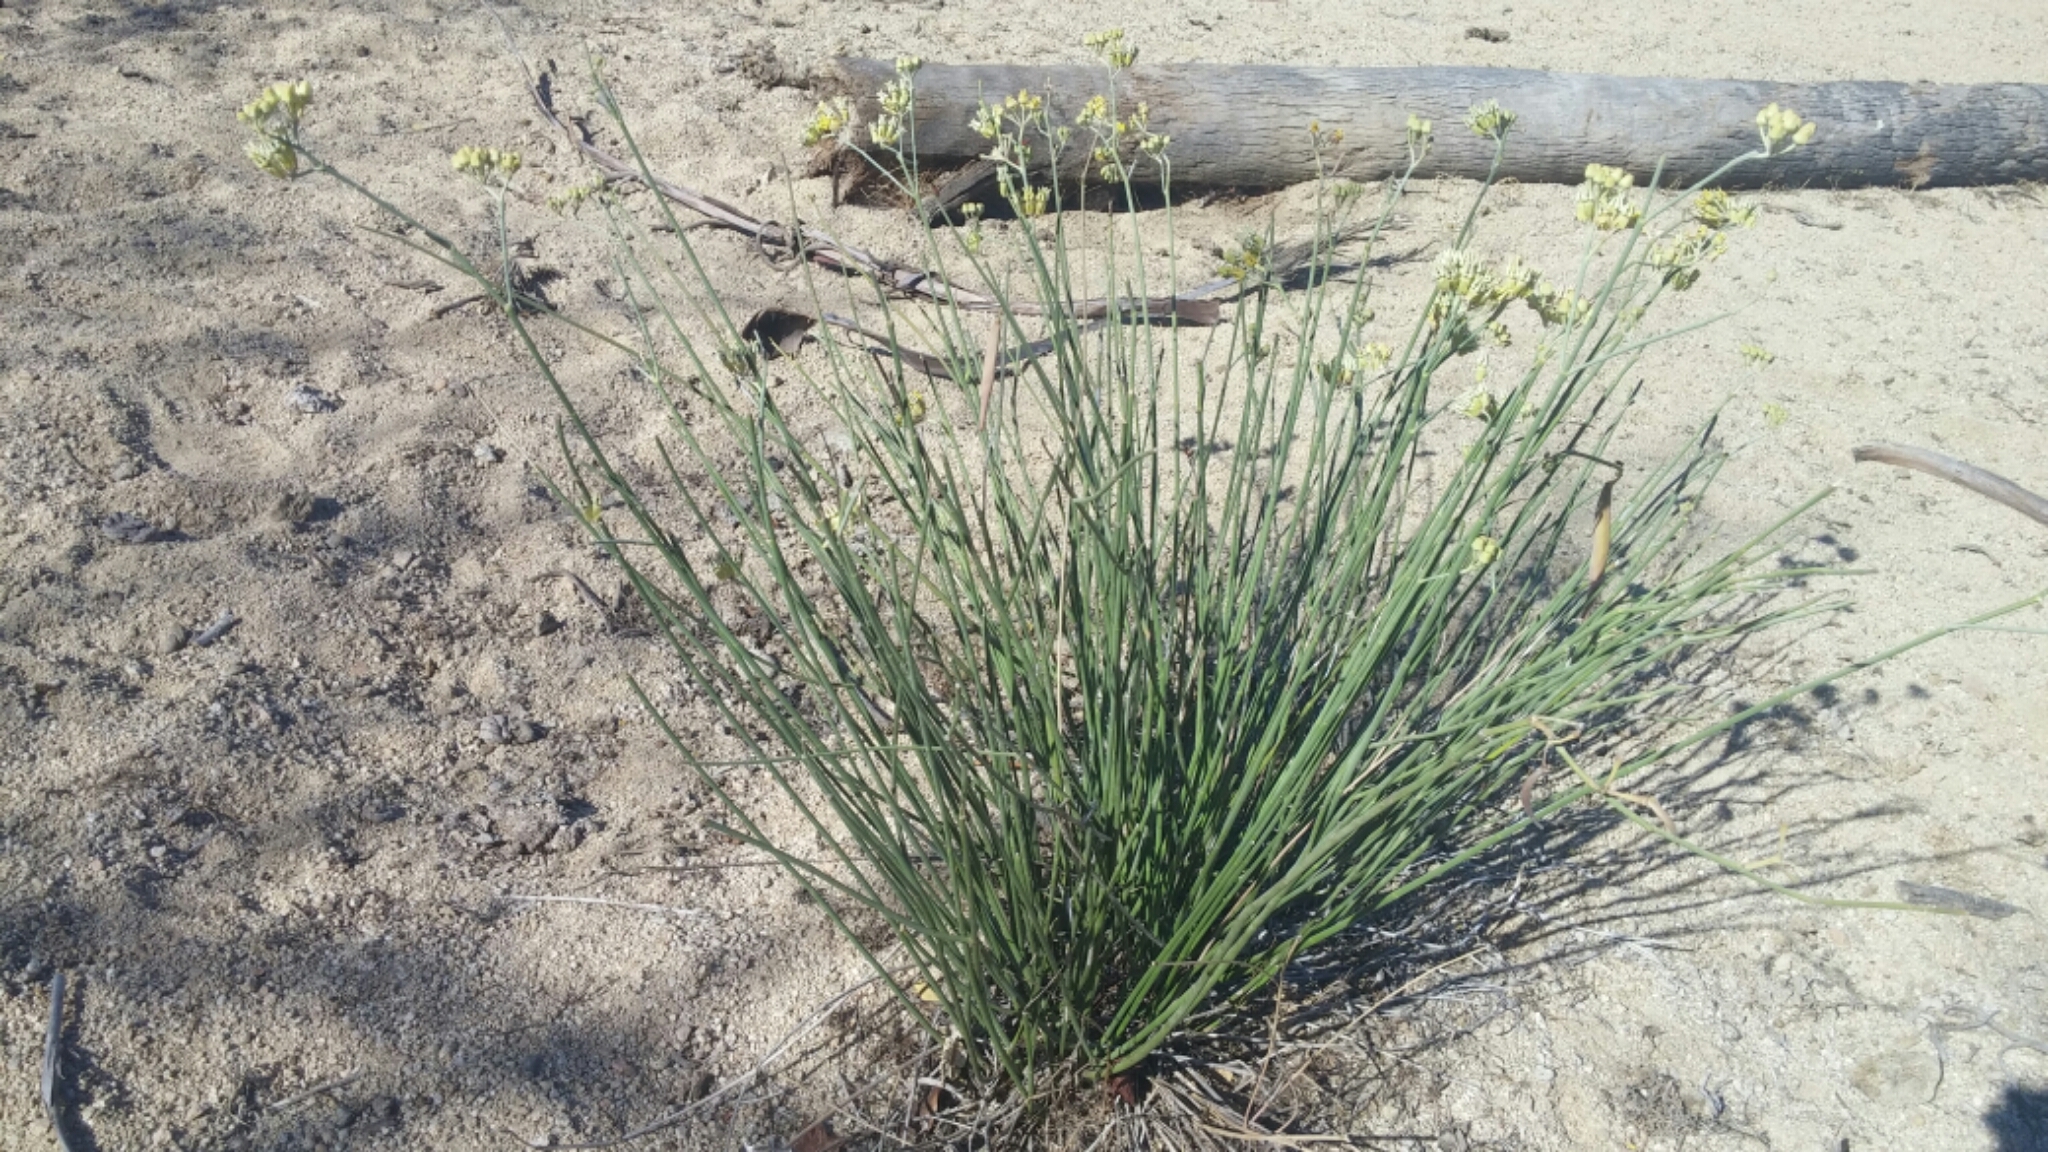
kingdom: Plantae
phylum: Tracheophyta
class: Magnoliopsida
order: Gentianales
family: Apocynaceae
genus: Asclepias
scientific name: Asclepias subulata
